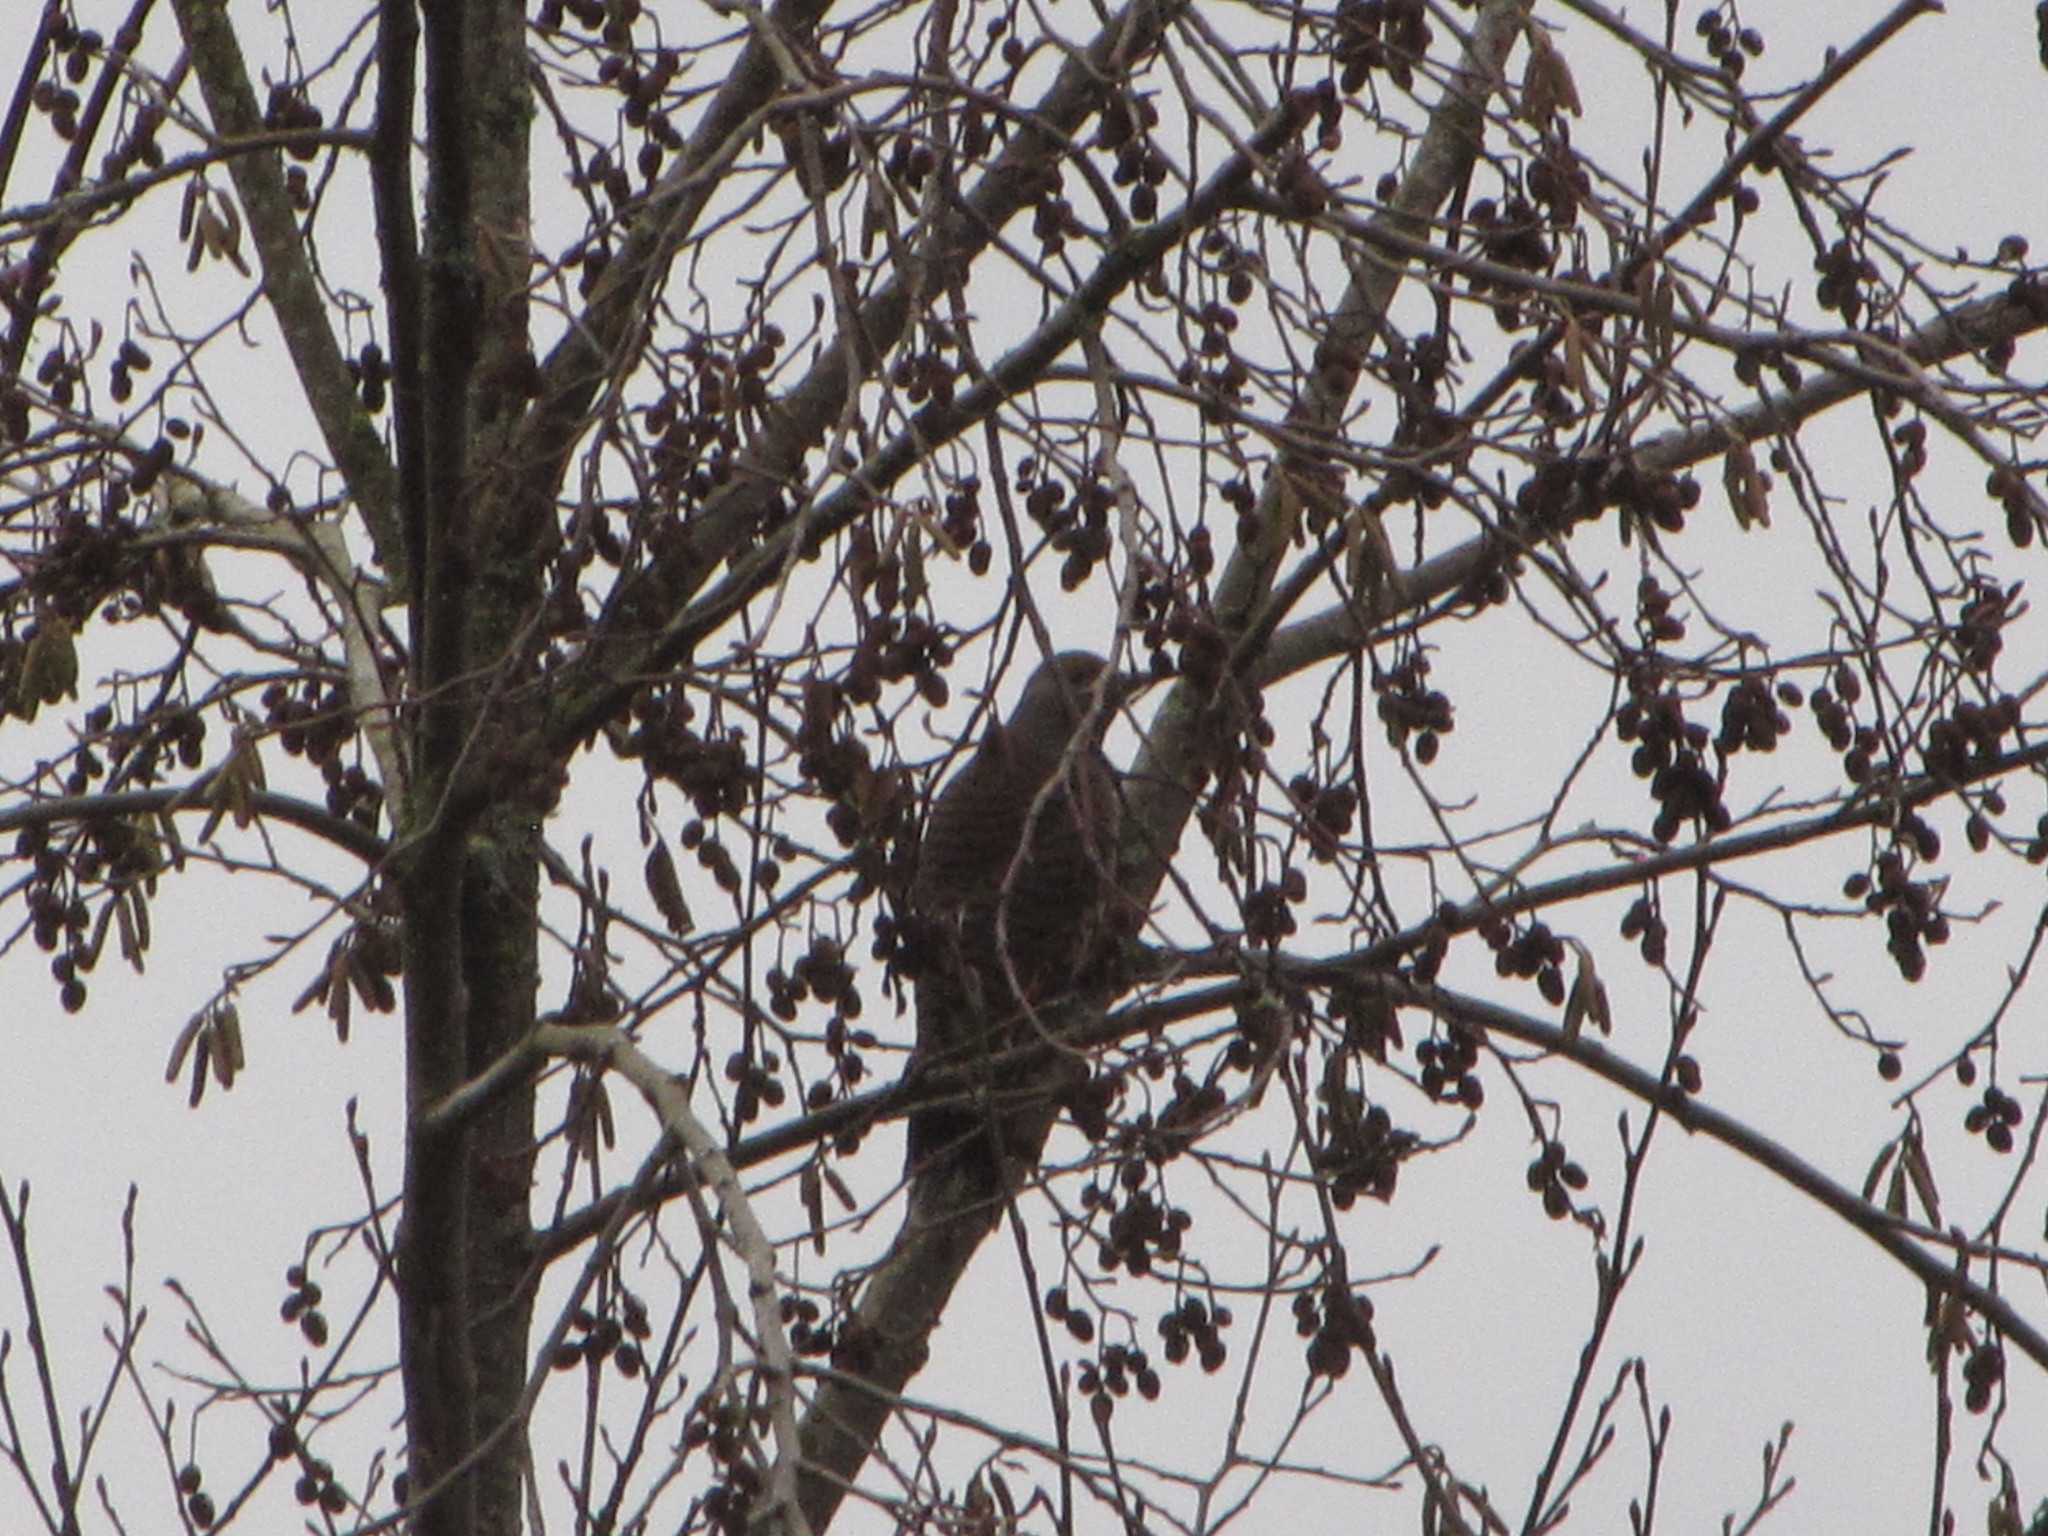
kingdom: Animalia
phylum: Chordata
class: Aves
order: Piciformes
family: Picidae
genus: Colaptes
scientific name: Colaptes auratus
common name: Northern flicker
